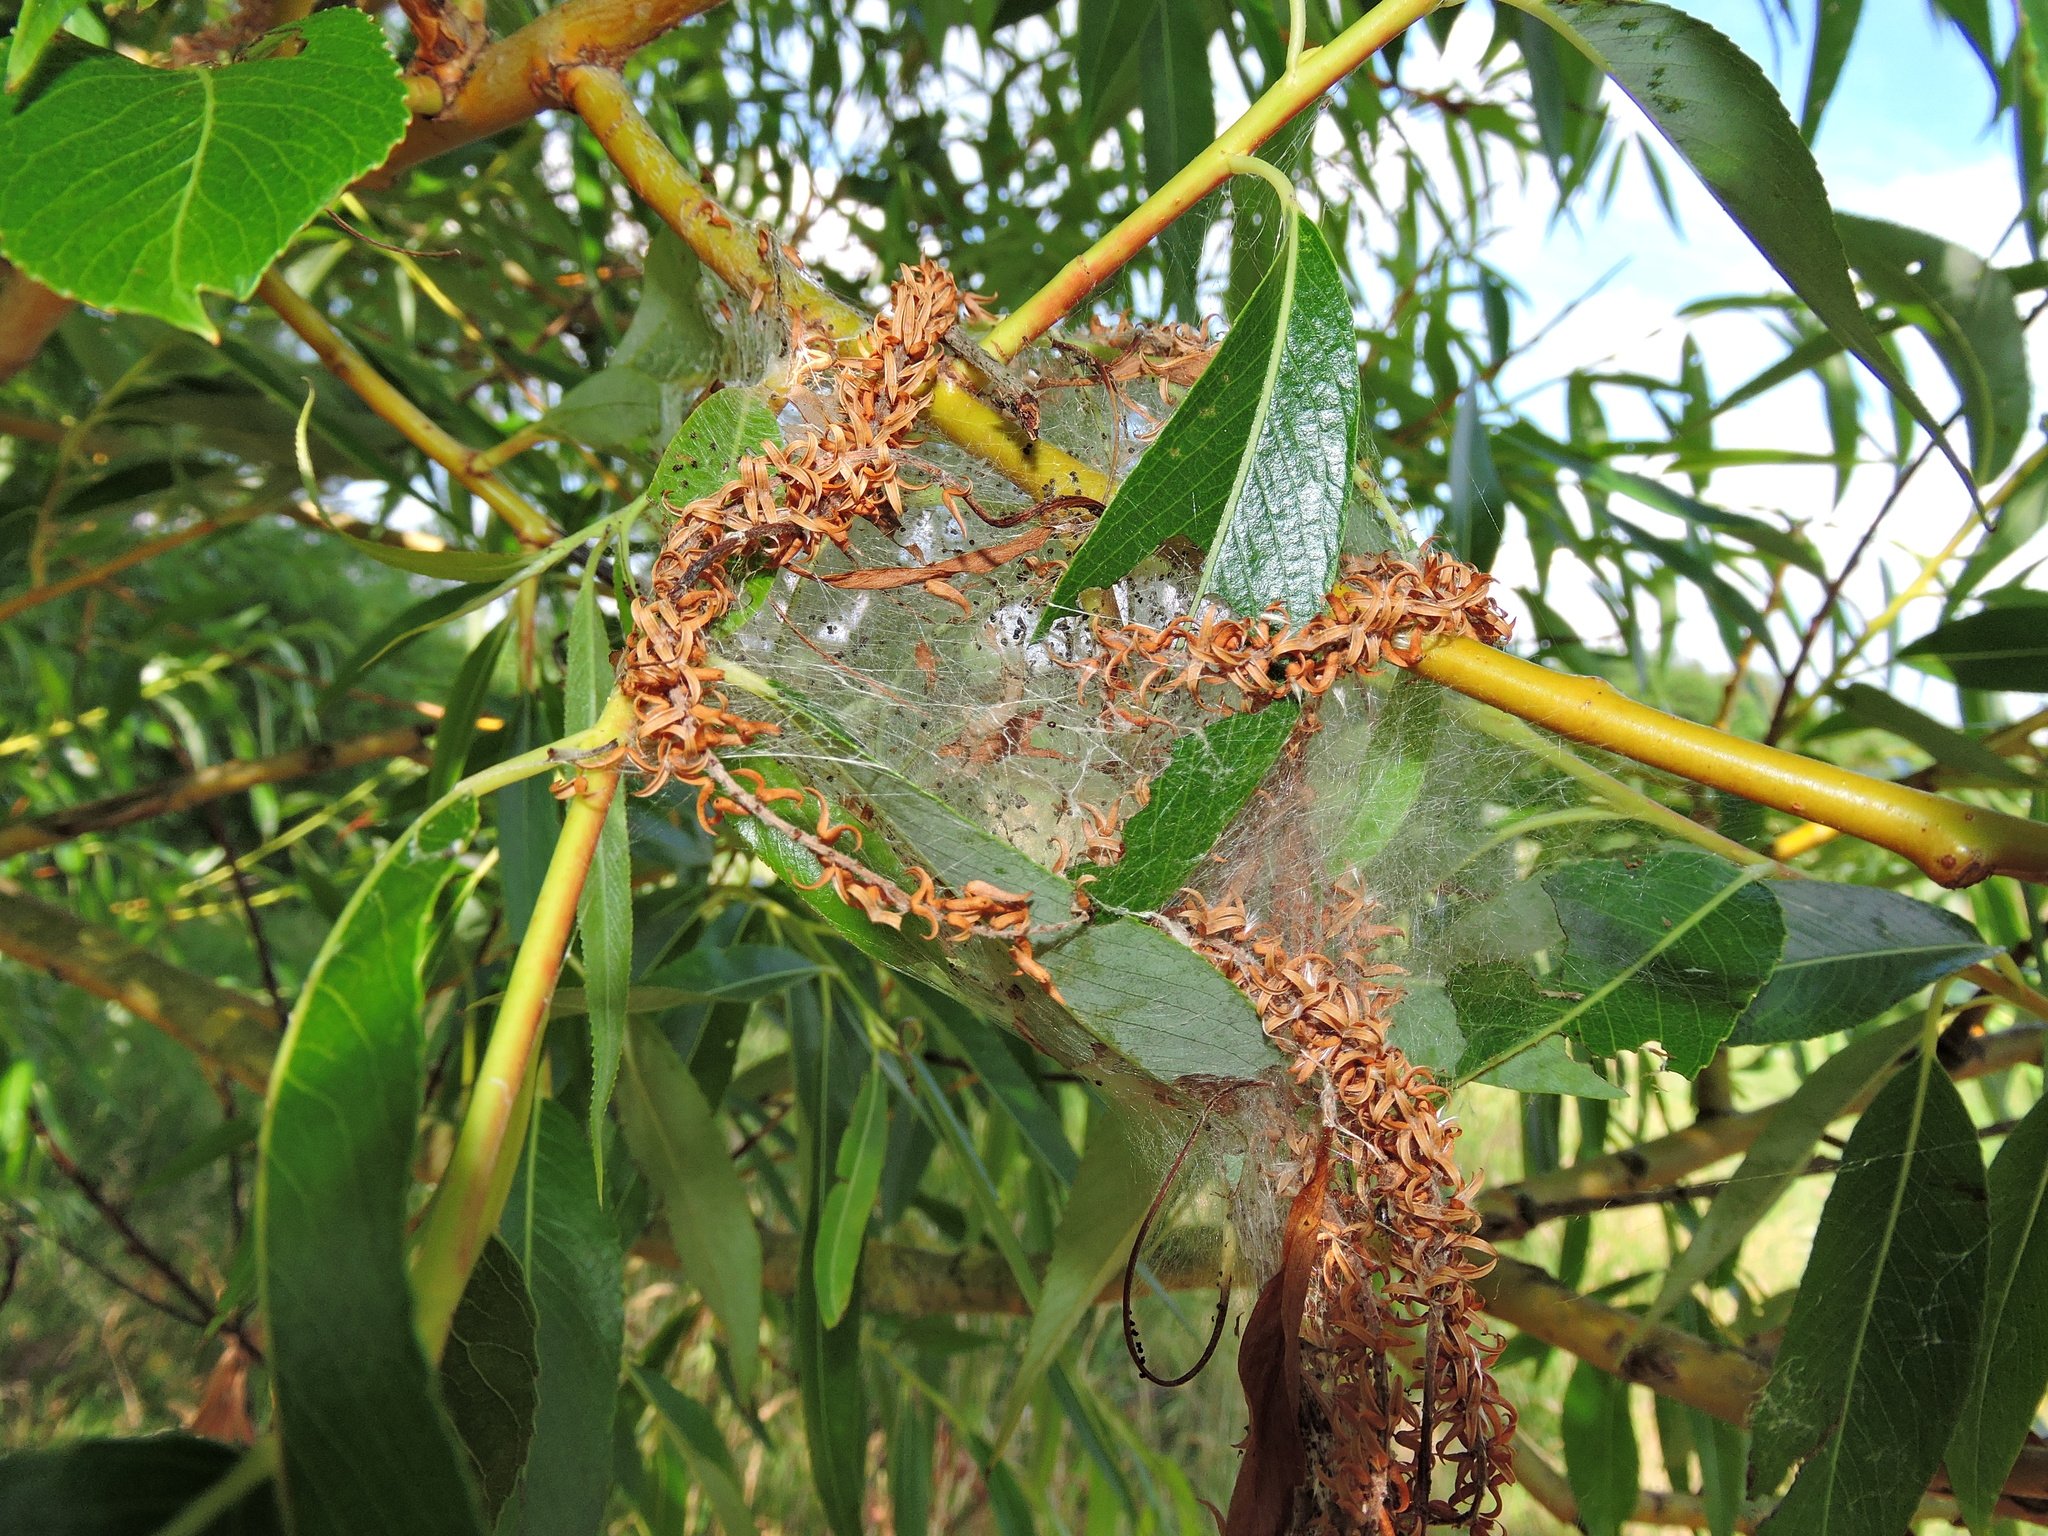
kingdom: Animalia
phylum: Arthropoda
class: Insecta
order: Lepidoptera
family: Yponomeutidae
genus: Yponomeuta
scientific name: Yponomeuta padella
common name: Orchard ermine
